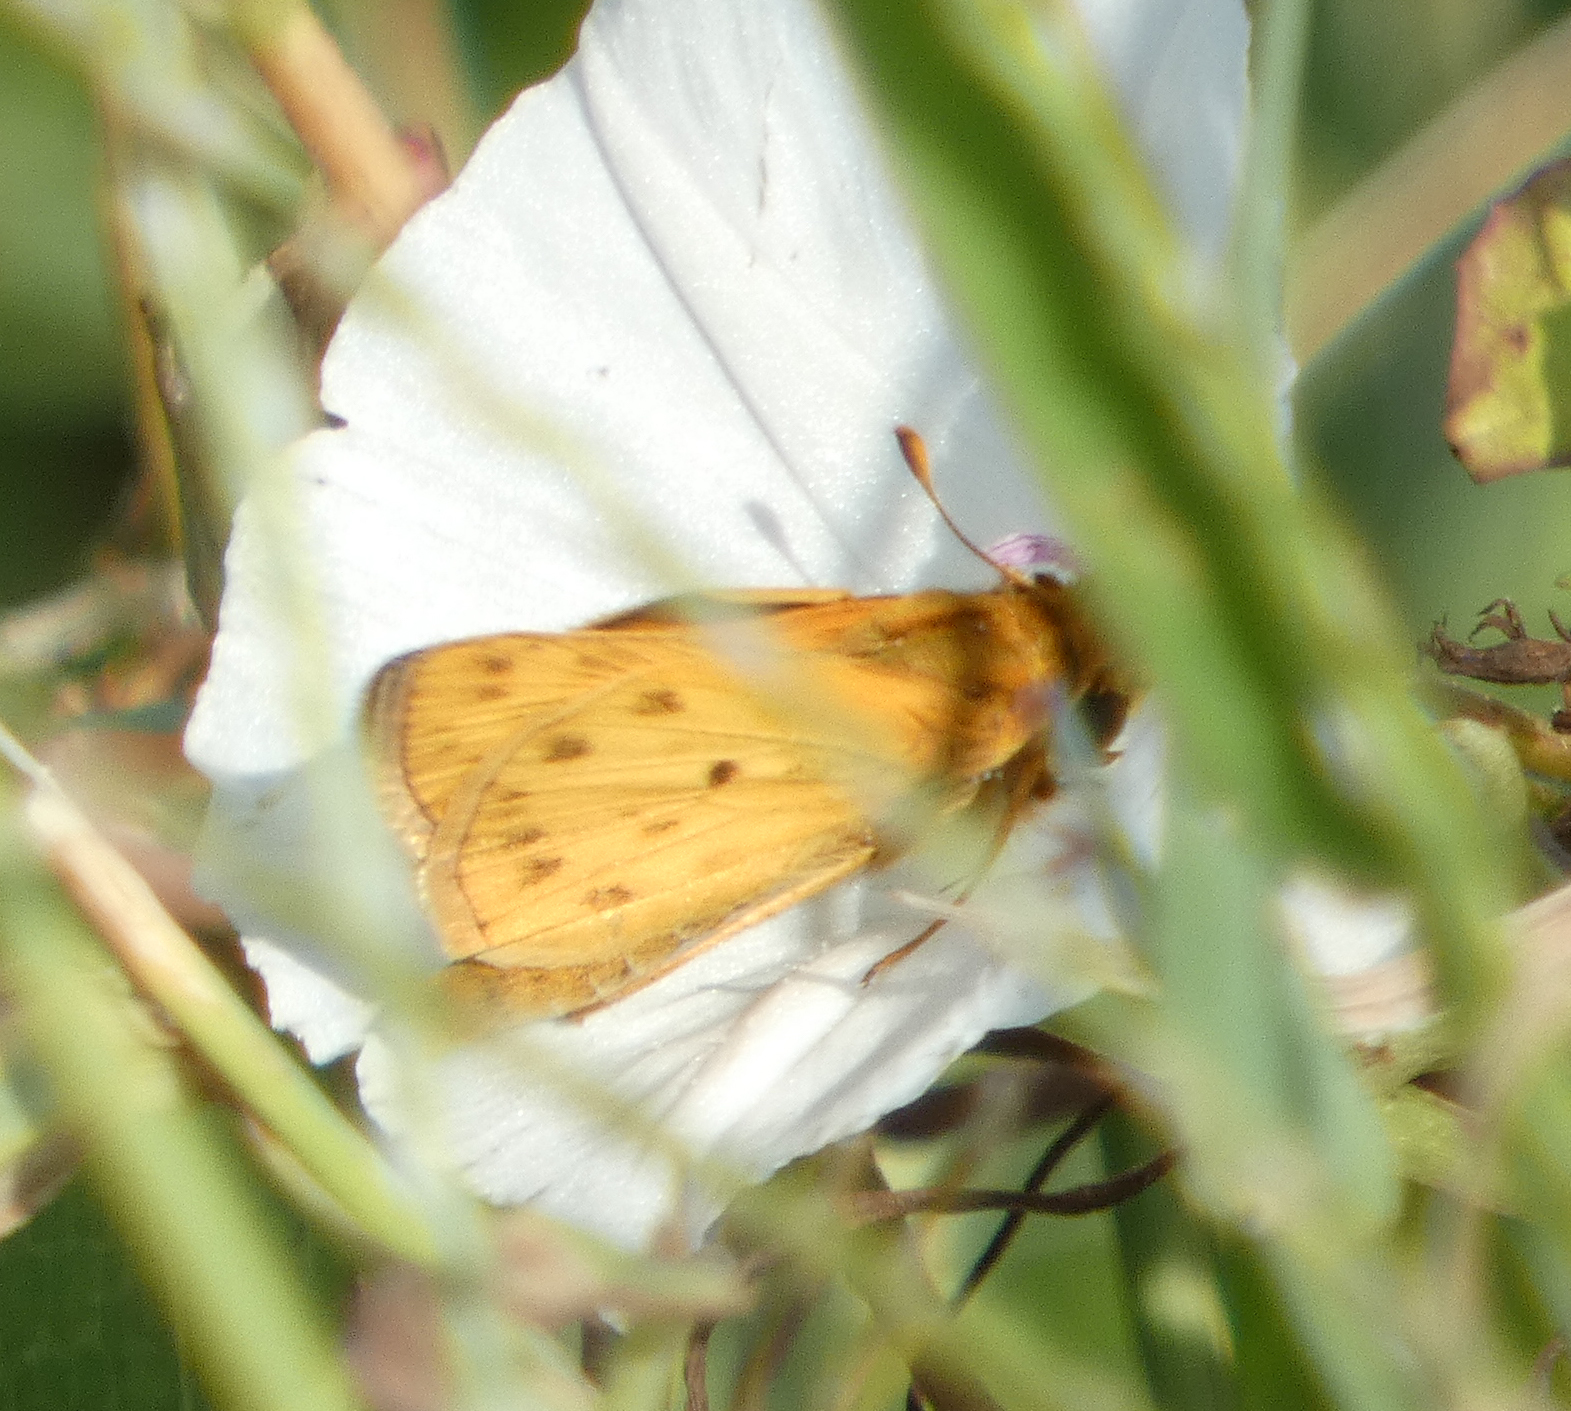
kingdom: Animalia
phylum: Arthropoda
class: Insecta
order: Lepidoptera
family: Hesperiidae
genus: Hylephila
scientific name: Hylephila phyleus
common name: Fiery skipper
